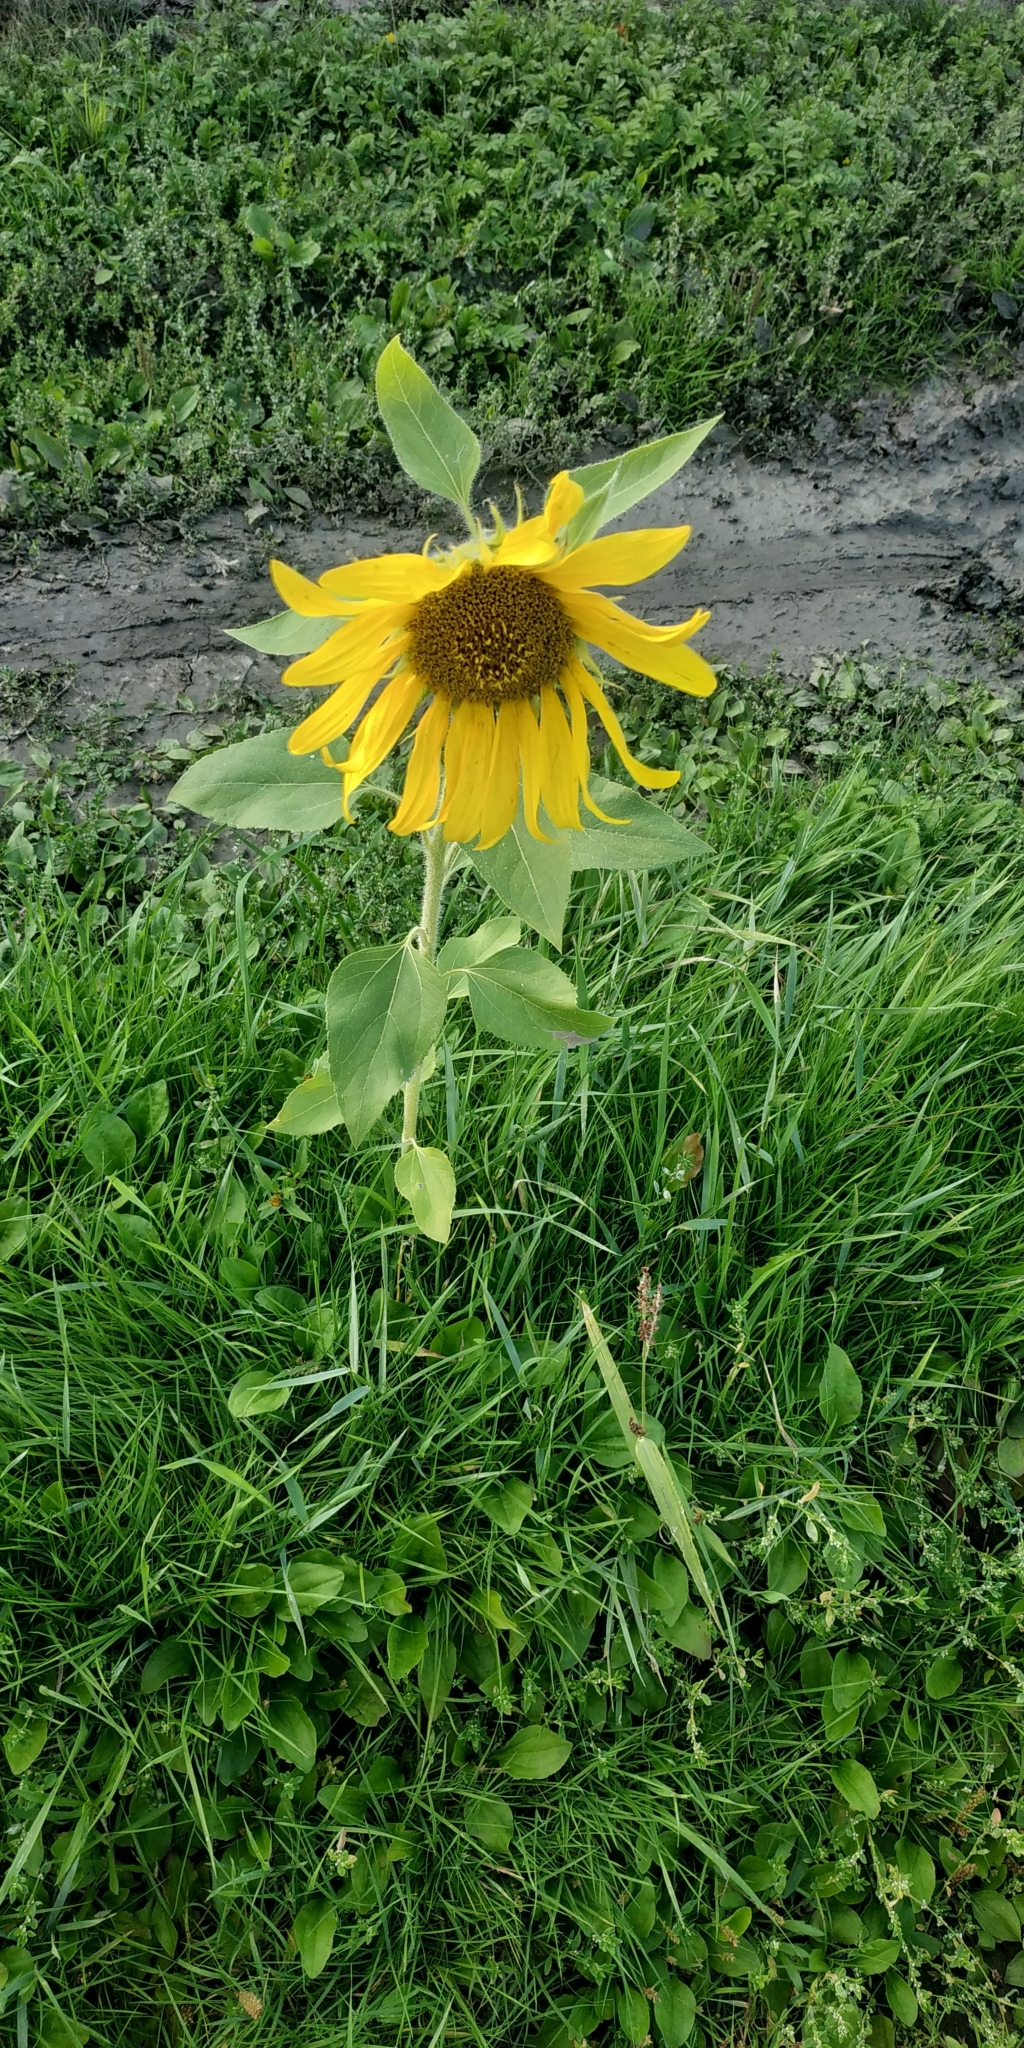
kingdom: Plantae
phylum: Tracheophyta
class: Magnoliopsida
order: Asterales
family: Asteraceae
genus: Helianthus
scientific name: Helianthus annuus
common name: Sunflower
